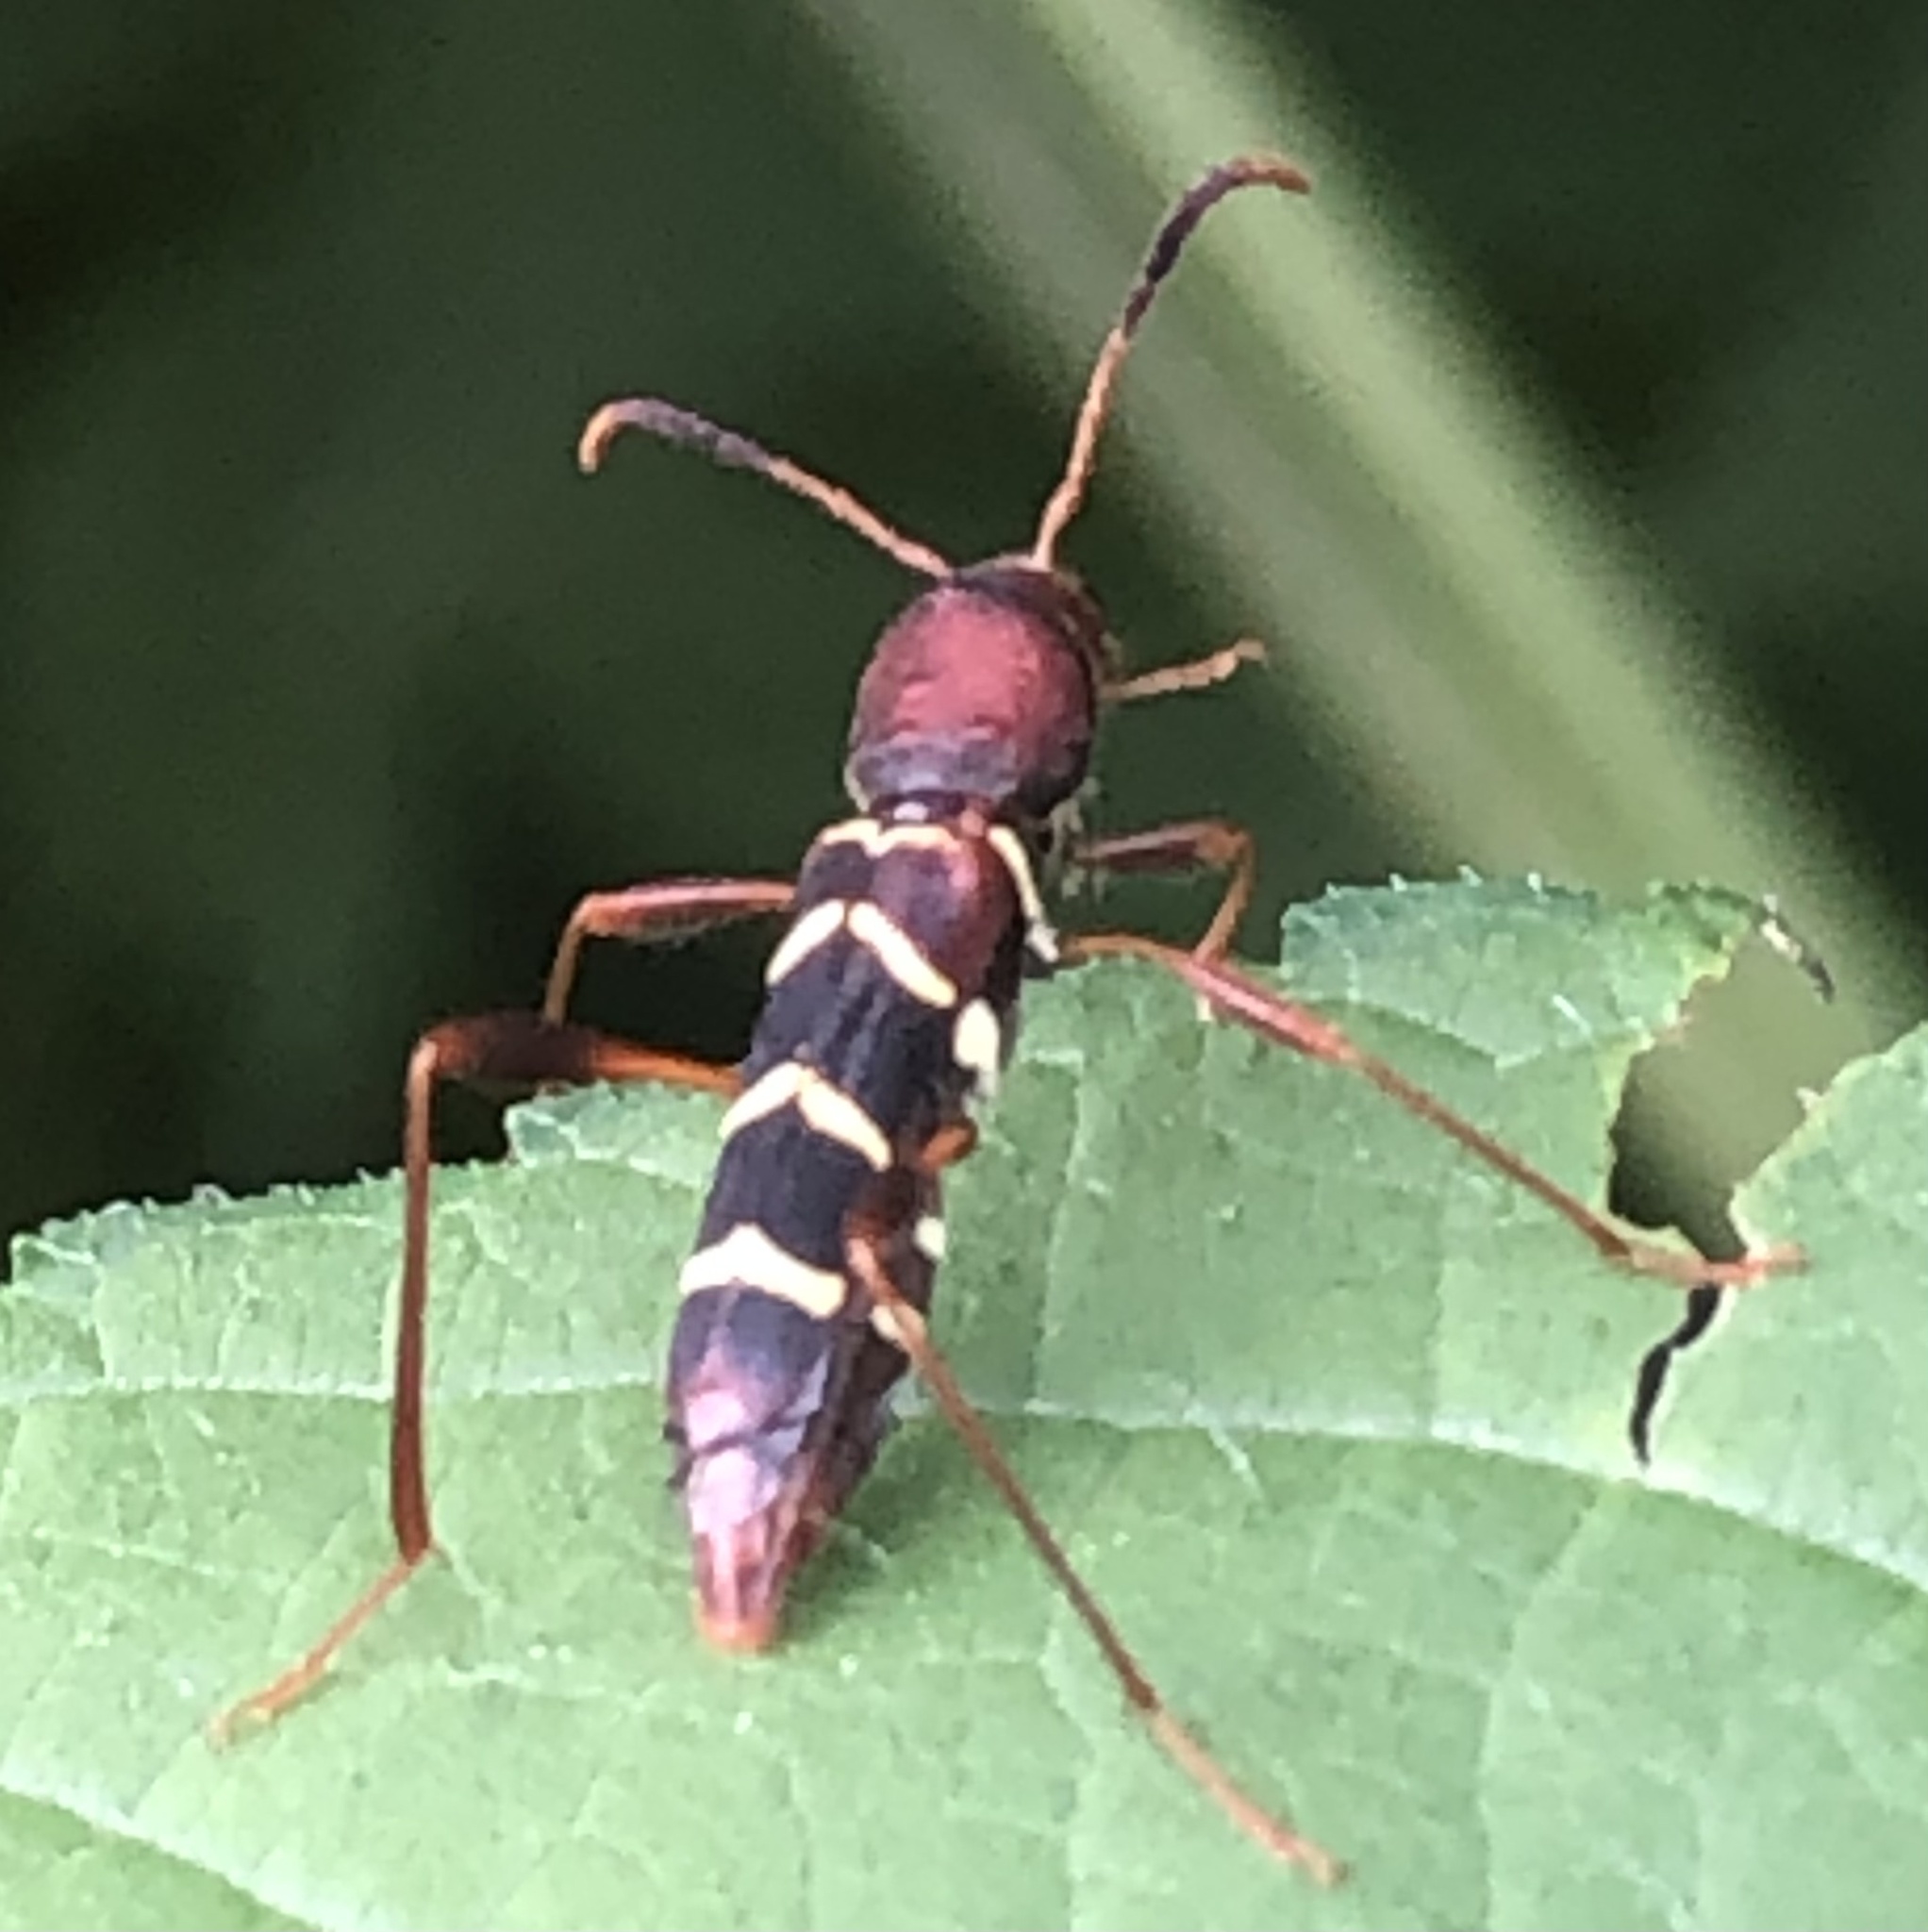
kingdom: Animalia
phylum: Arthropoda
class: Insecta
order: Coleoptera
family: Cerambycidae
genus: Neoclytus
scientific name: Neoclytus acuminatus
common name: Read-headed ash borer
